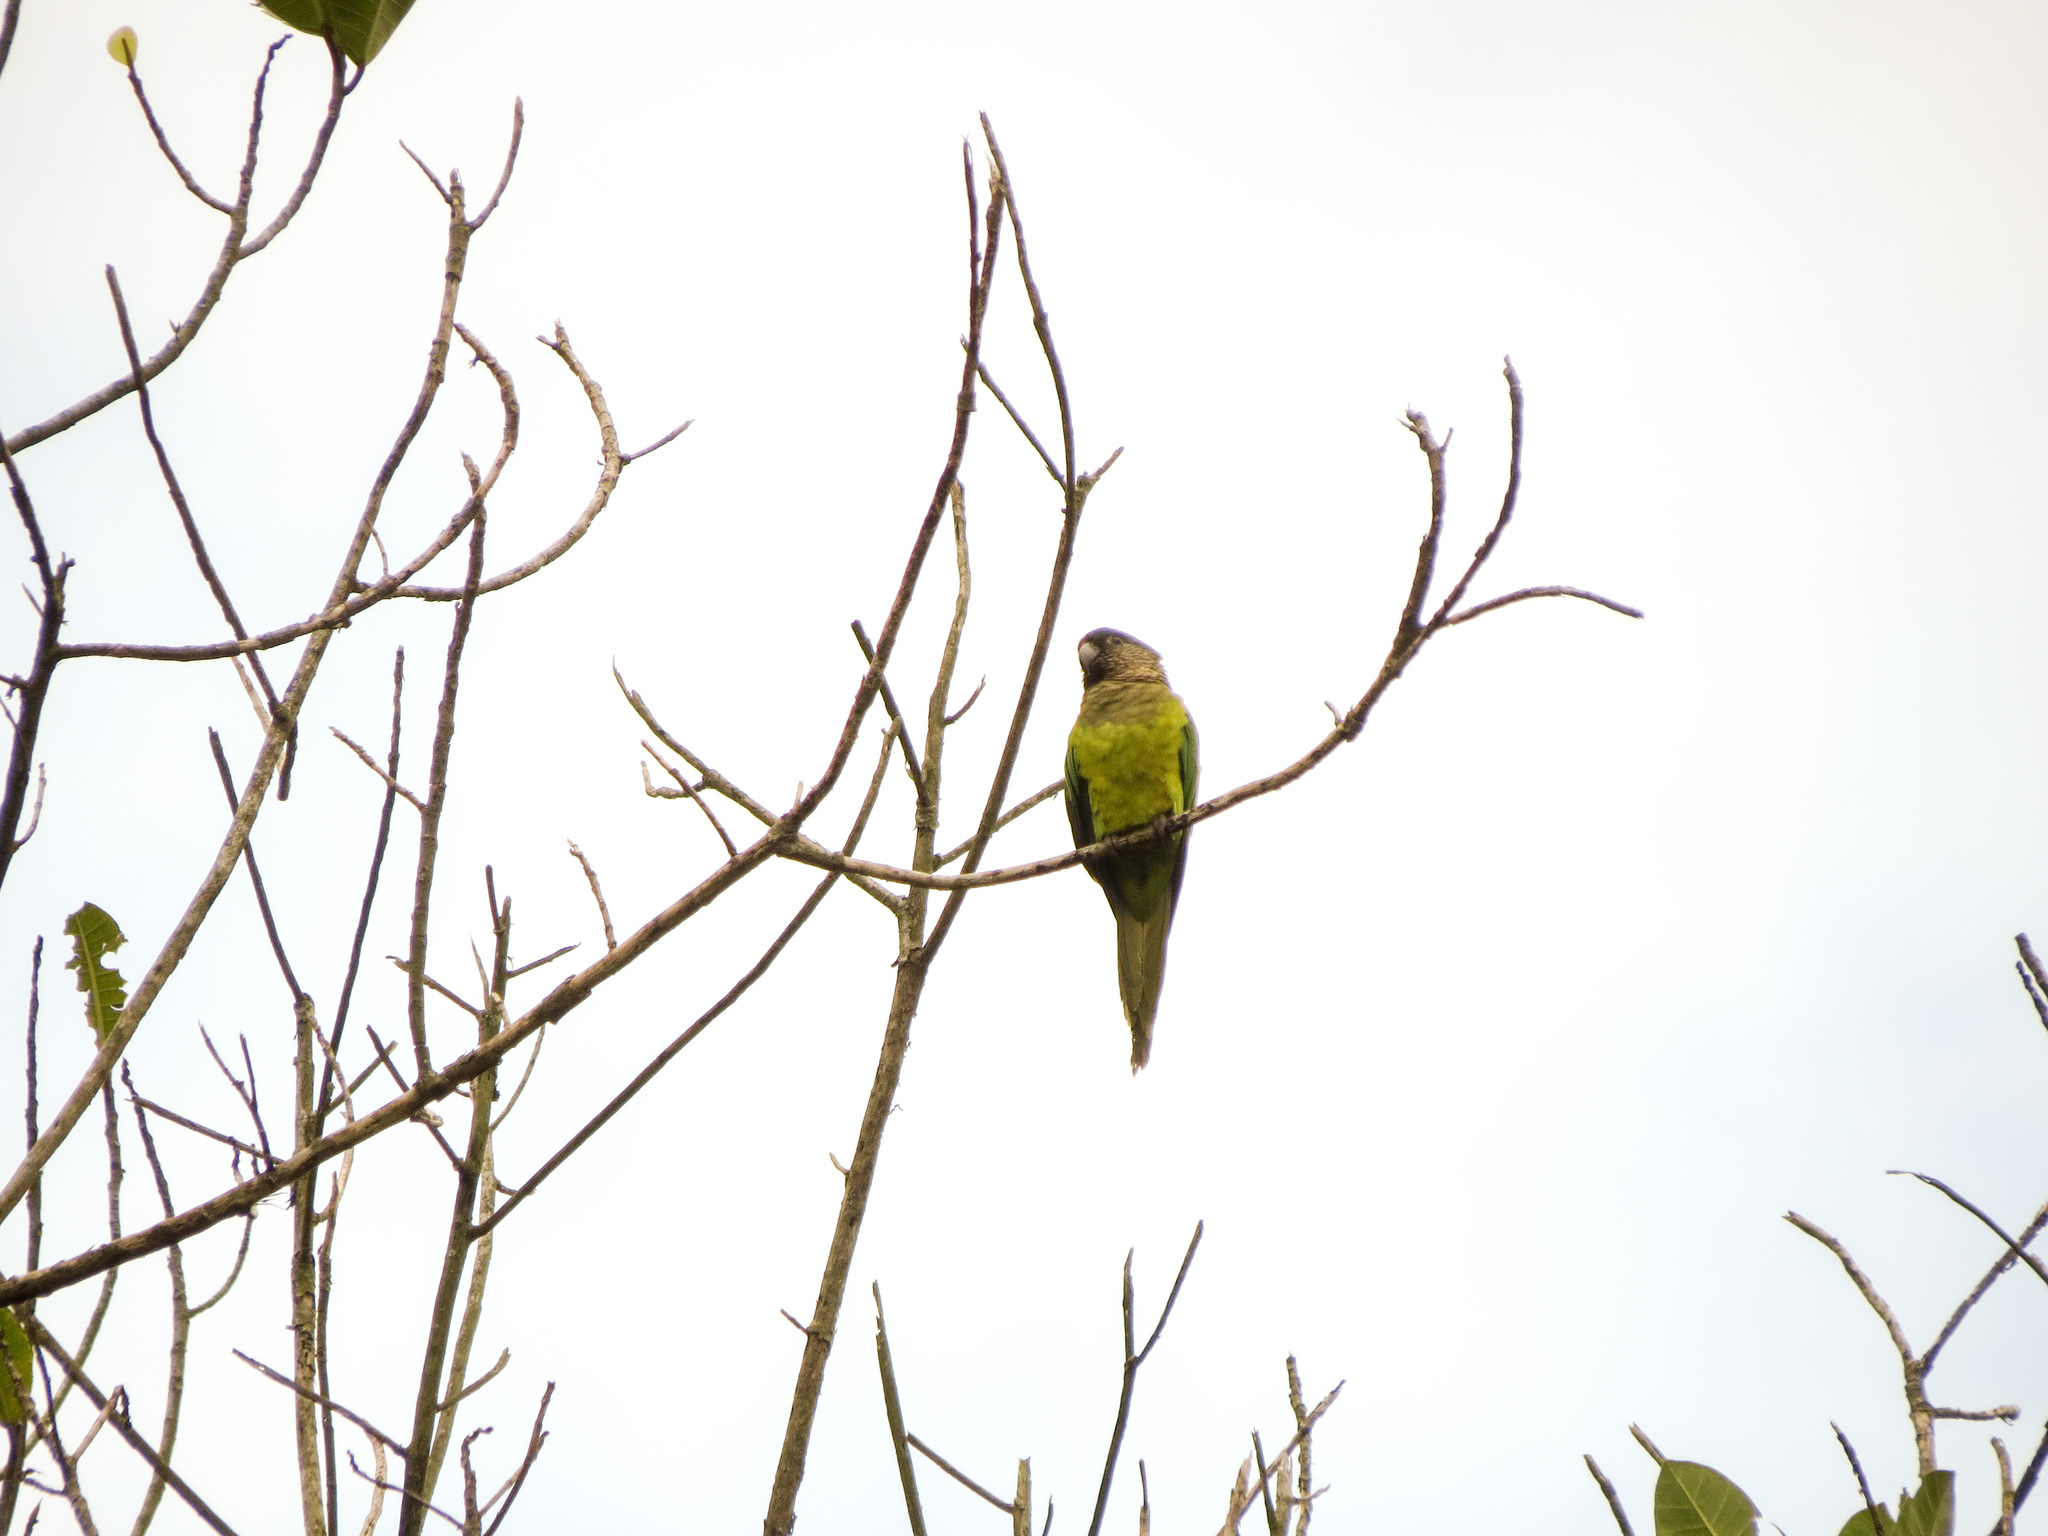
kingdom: Animalia
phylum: Chordata
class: Aves
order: Psittaciformes
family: Psittacidae
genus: Aratinga
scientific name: Aratinga pertinax
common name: Brown-throated parakeet
